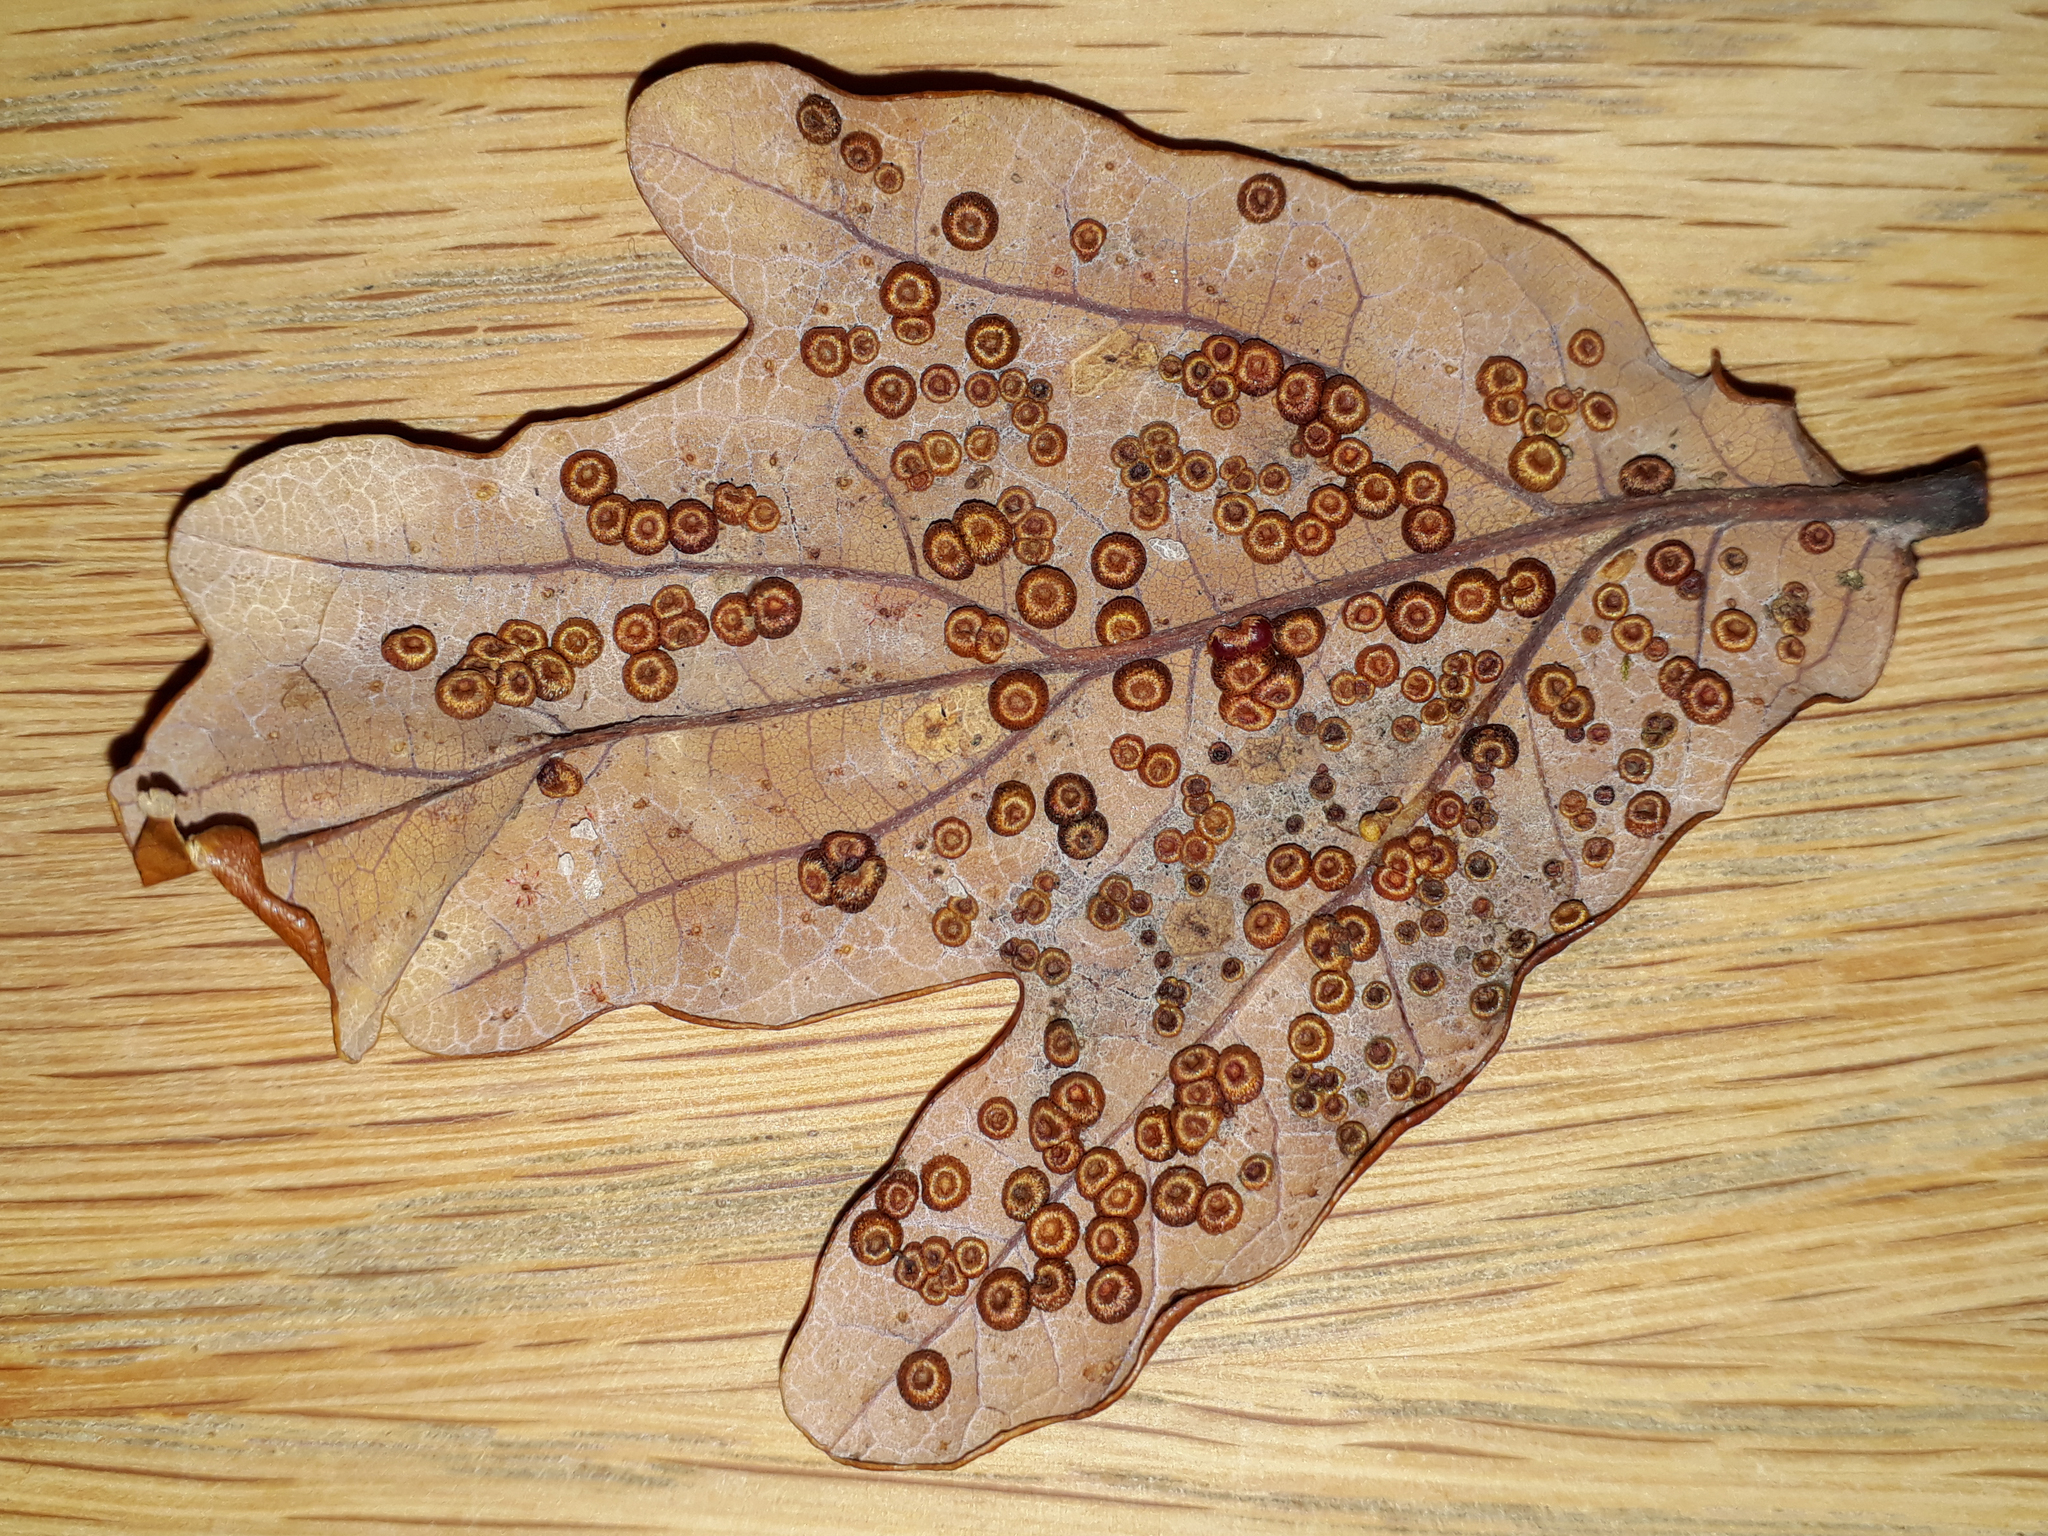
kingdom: Animalia
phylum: Arthropoda
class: Insecta
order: Hymenoptera
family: Cynipidae
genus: Neuroterus
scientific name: Neuroterus numismalis
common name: Silk-button spangle gall
